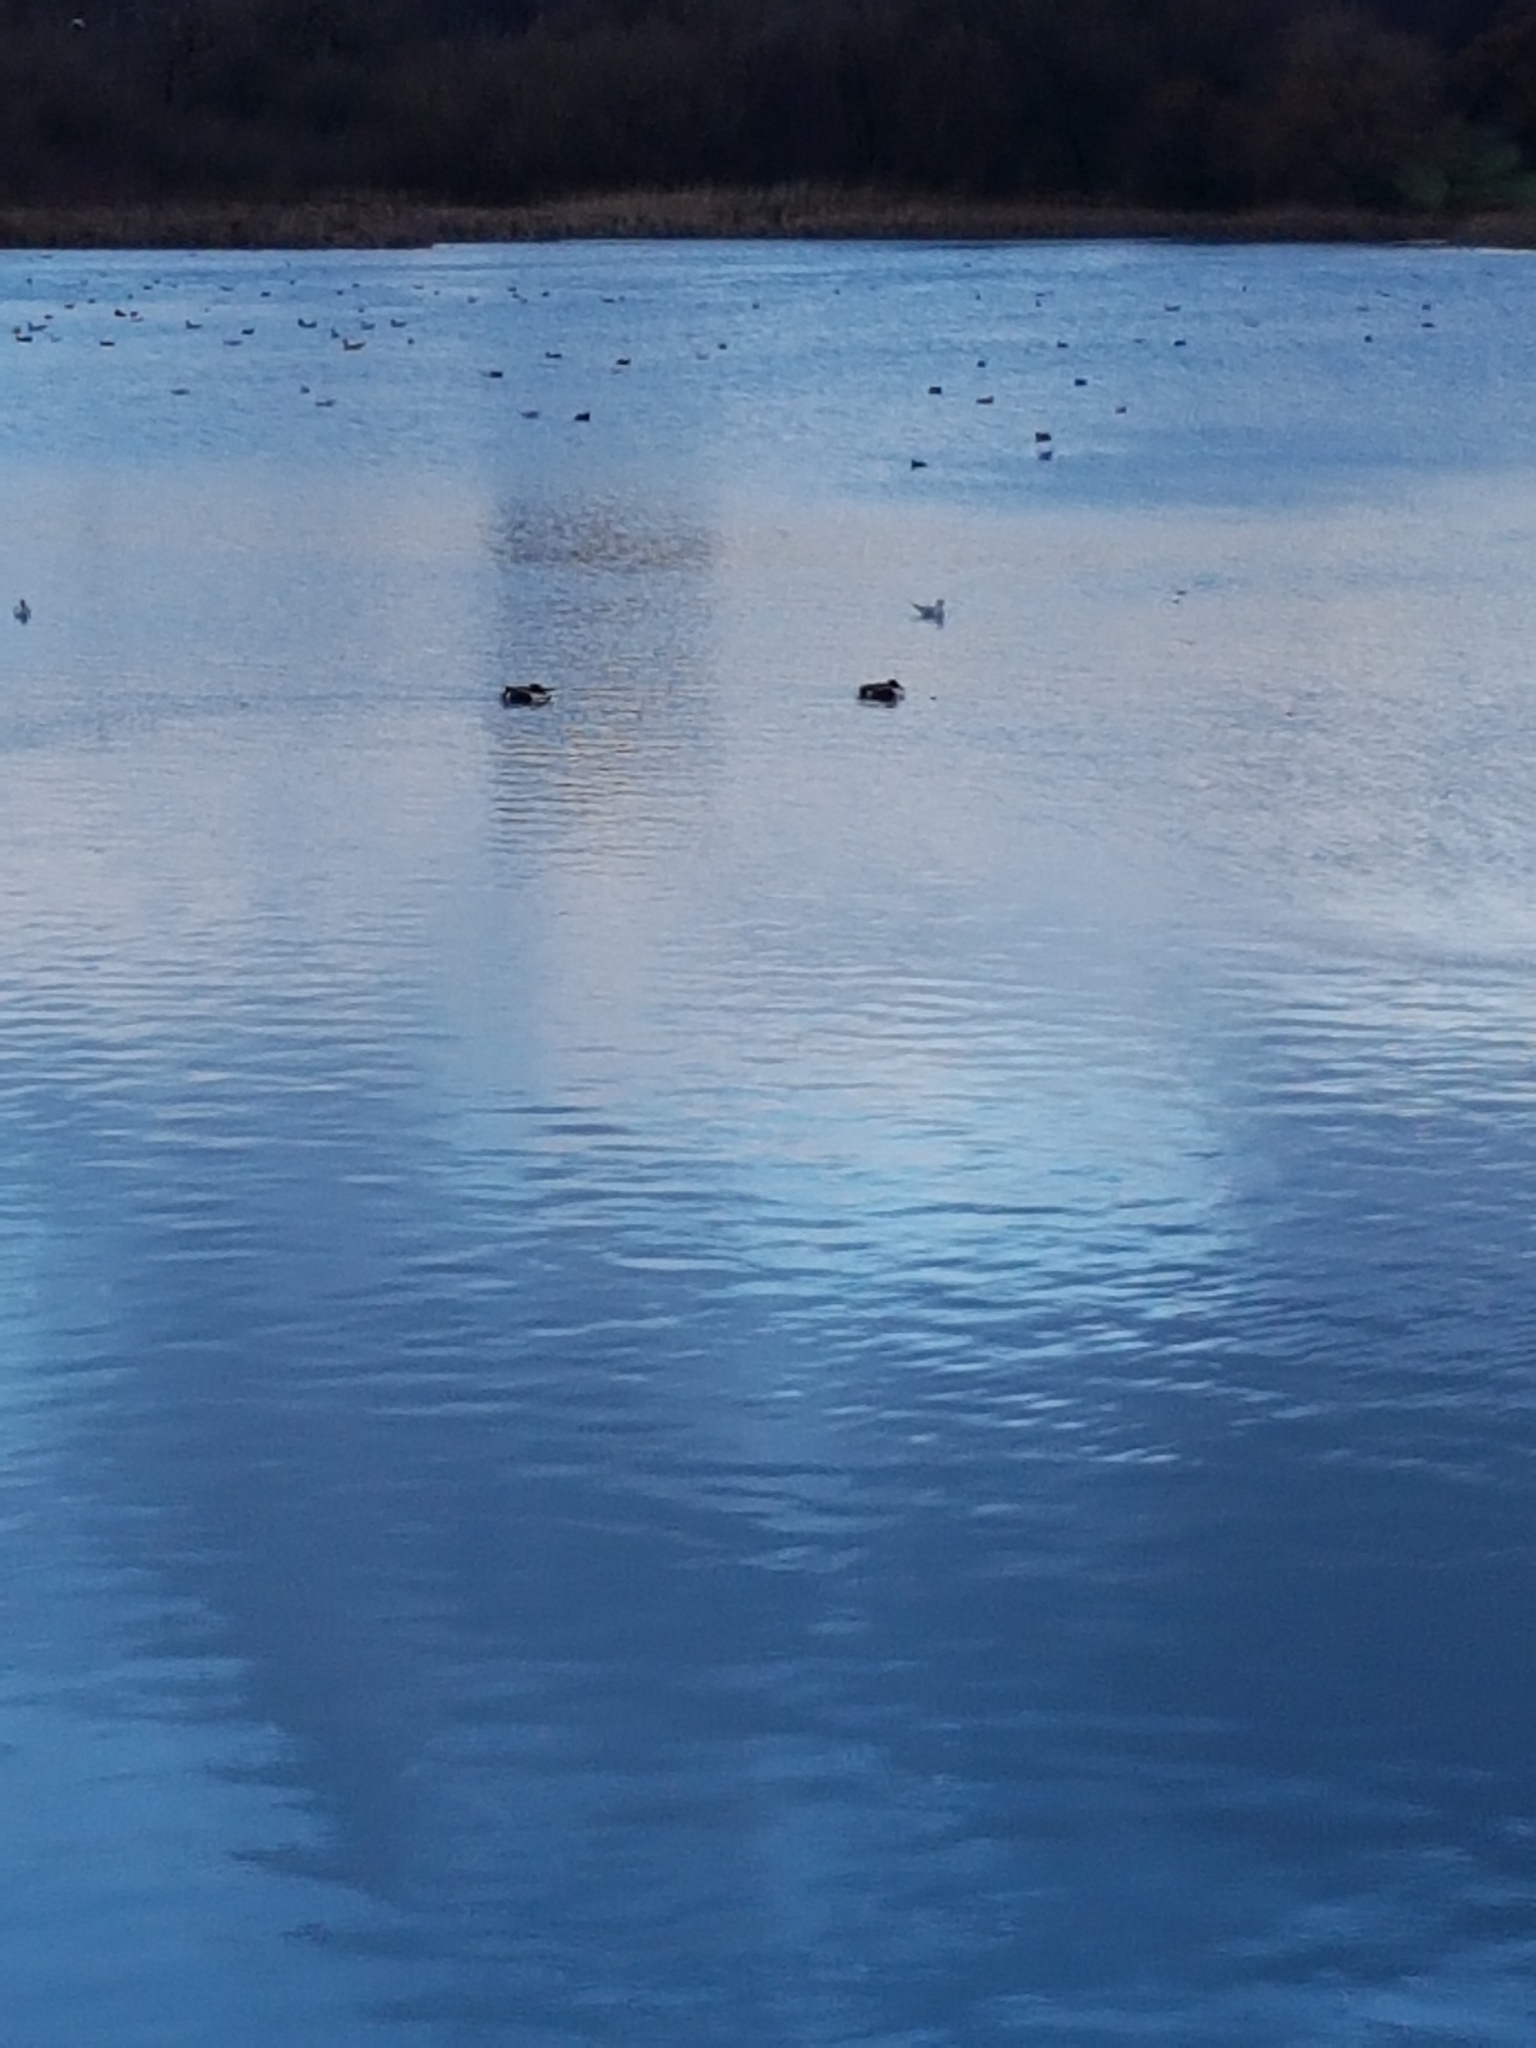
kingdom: Animalia
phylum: Chordata
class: Aves
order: Anseriformes
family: Anatidae
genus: Spatula
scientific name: Spatula clypeata
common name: Northern shoveler
